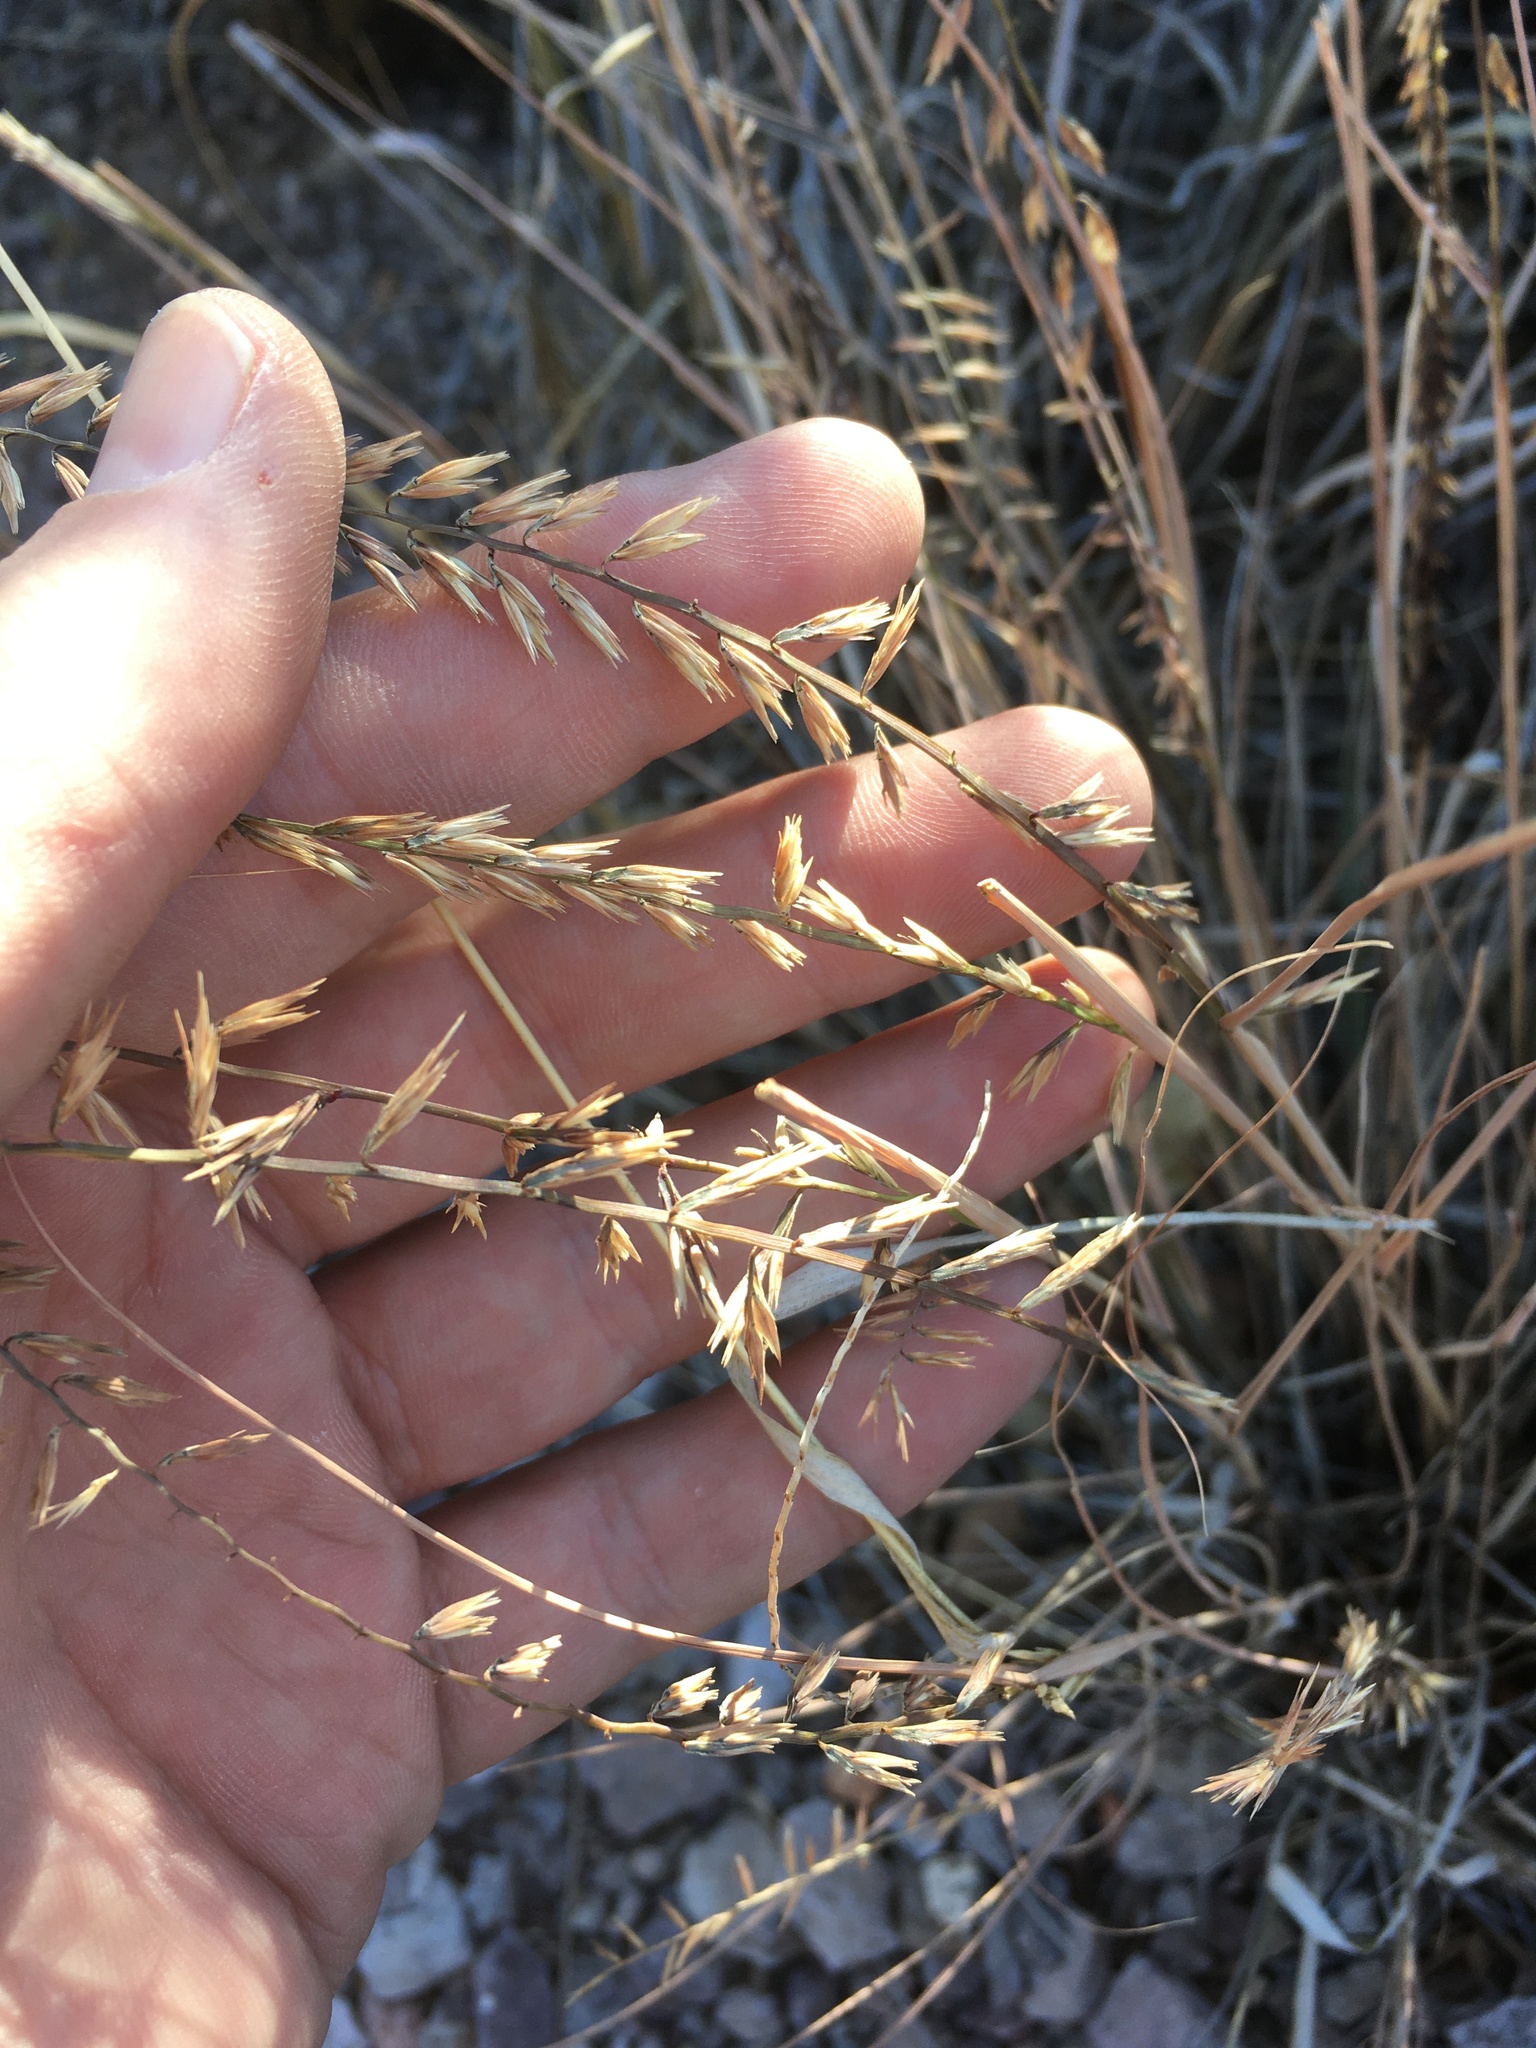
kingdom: Plantae
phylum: Tracheophyta
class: Liliopsida
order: Poales
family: Poaceae
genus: Bouteloua
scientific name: Bouteloua curtipendula
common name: Side-oats grama
